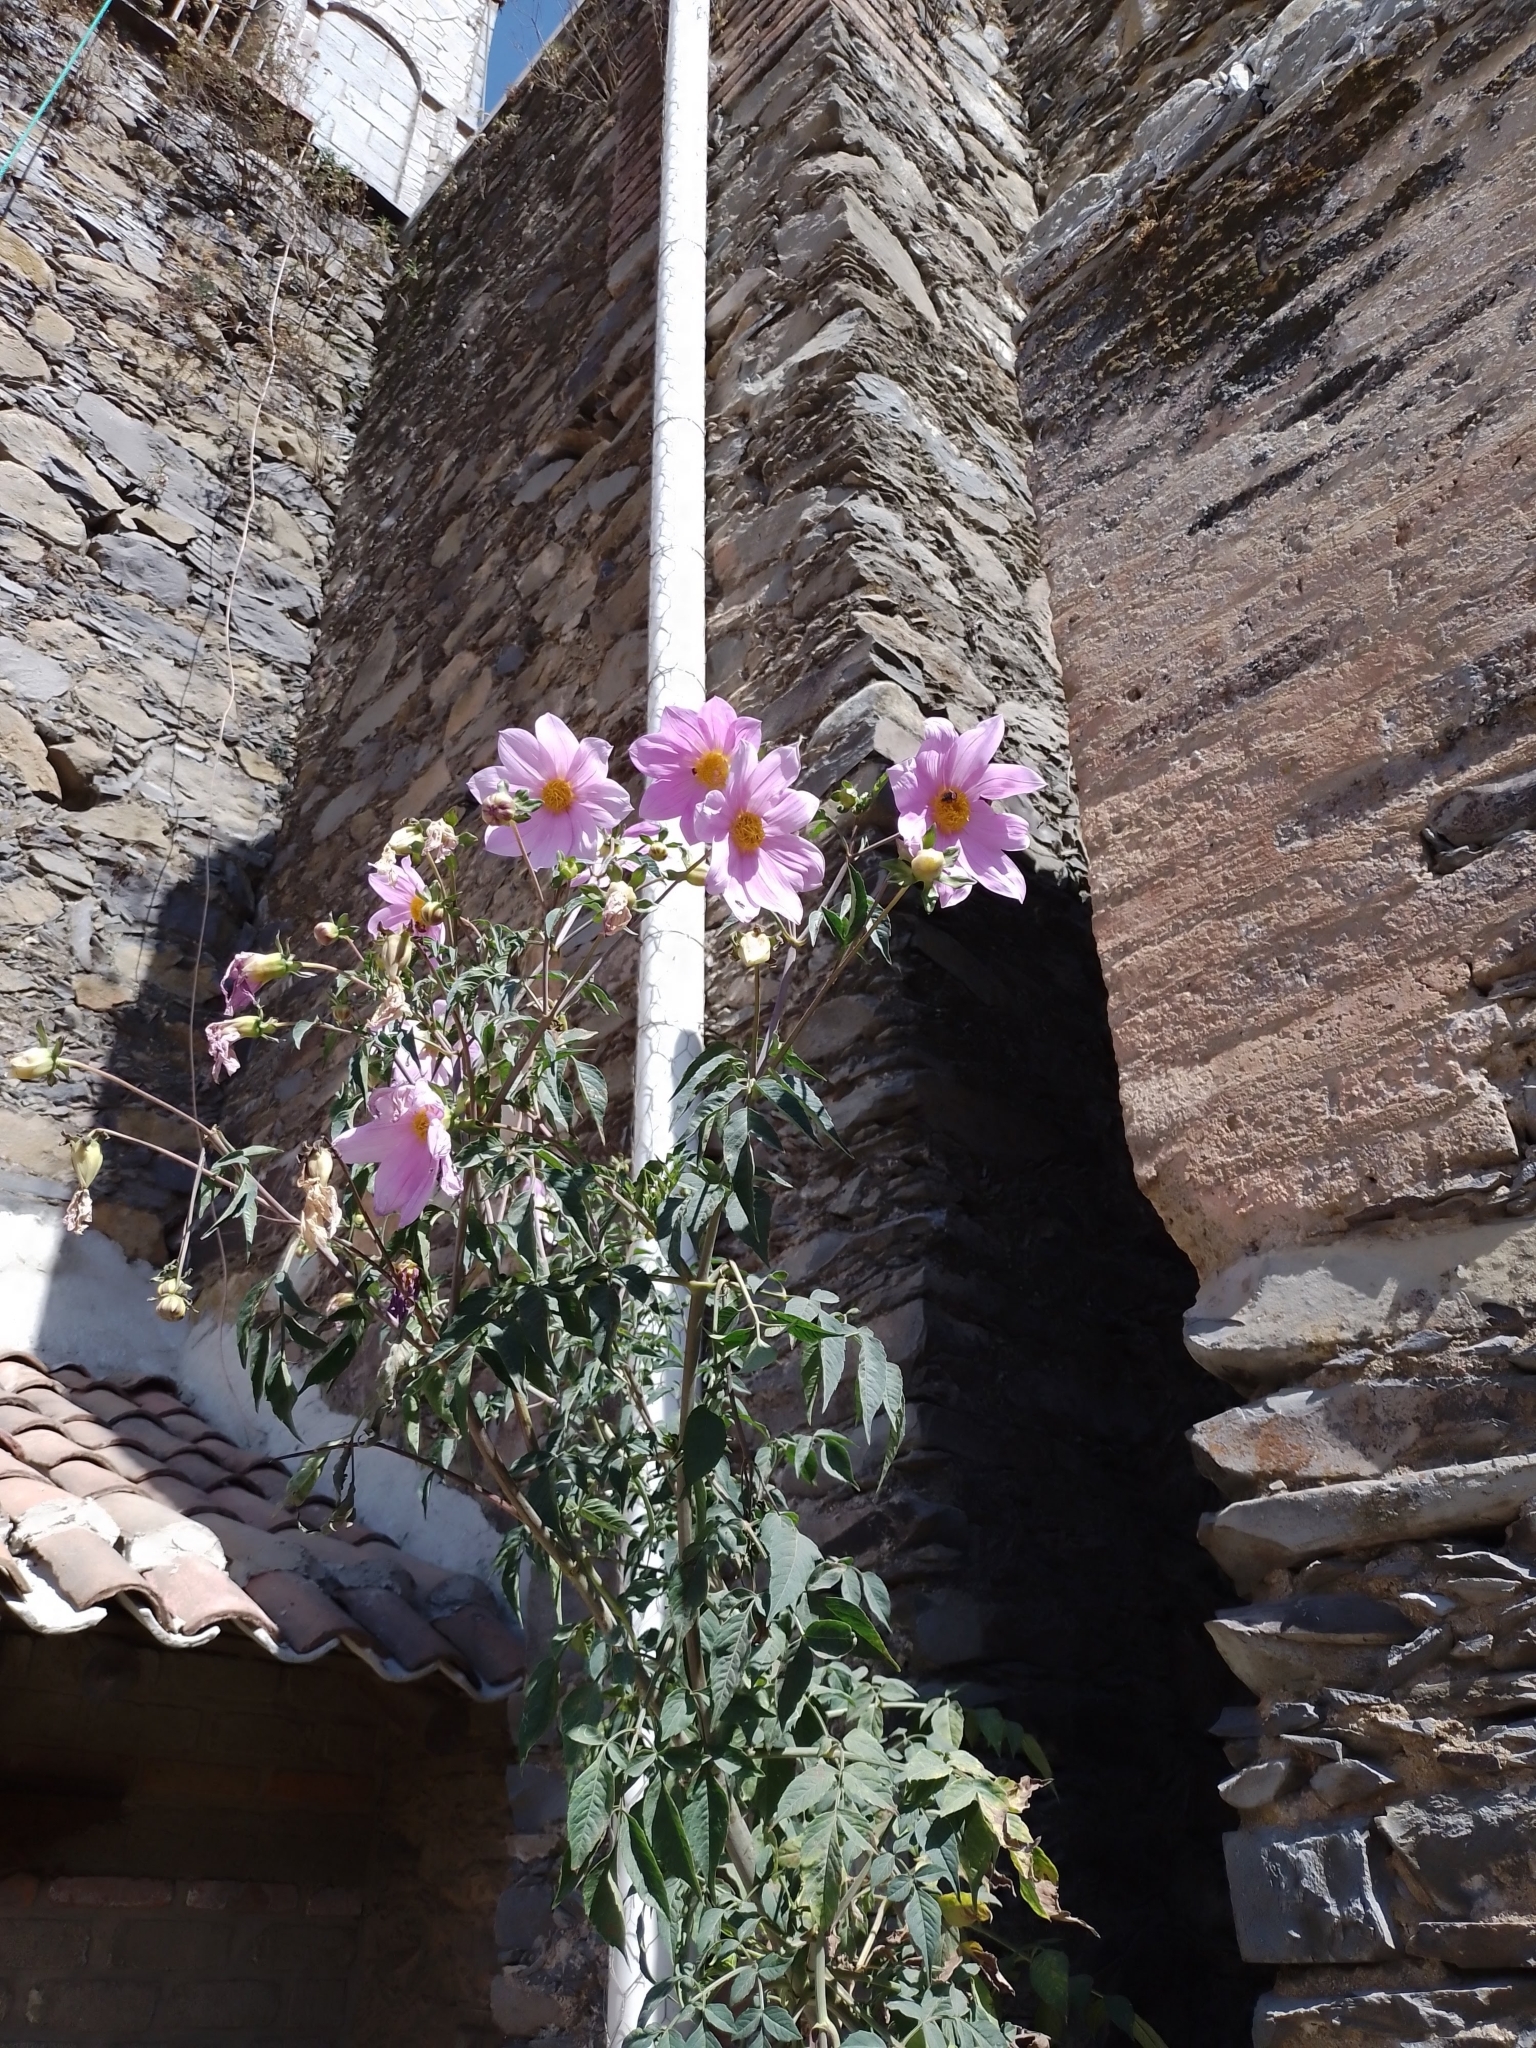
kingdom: Plantae
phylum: Tracheophyta
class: Magnoliopsida
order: Asterales
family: Asteraceae
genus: Dahlia
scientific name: Dahlia imperialis
